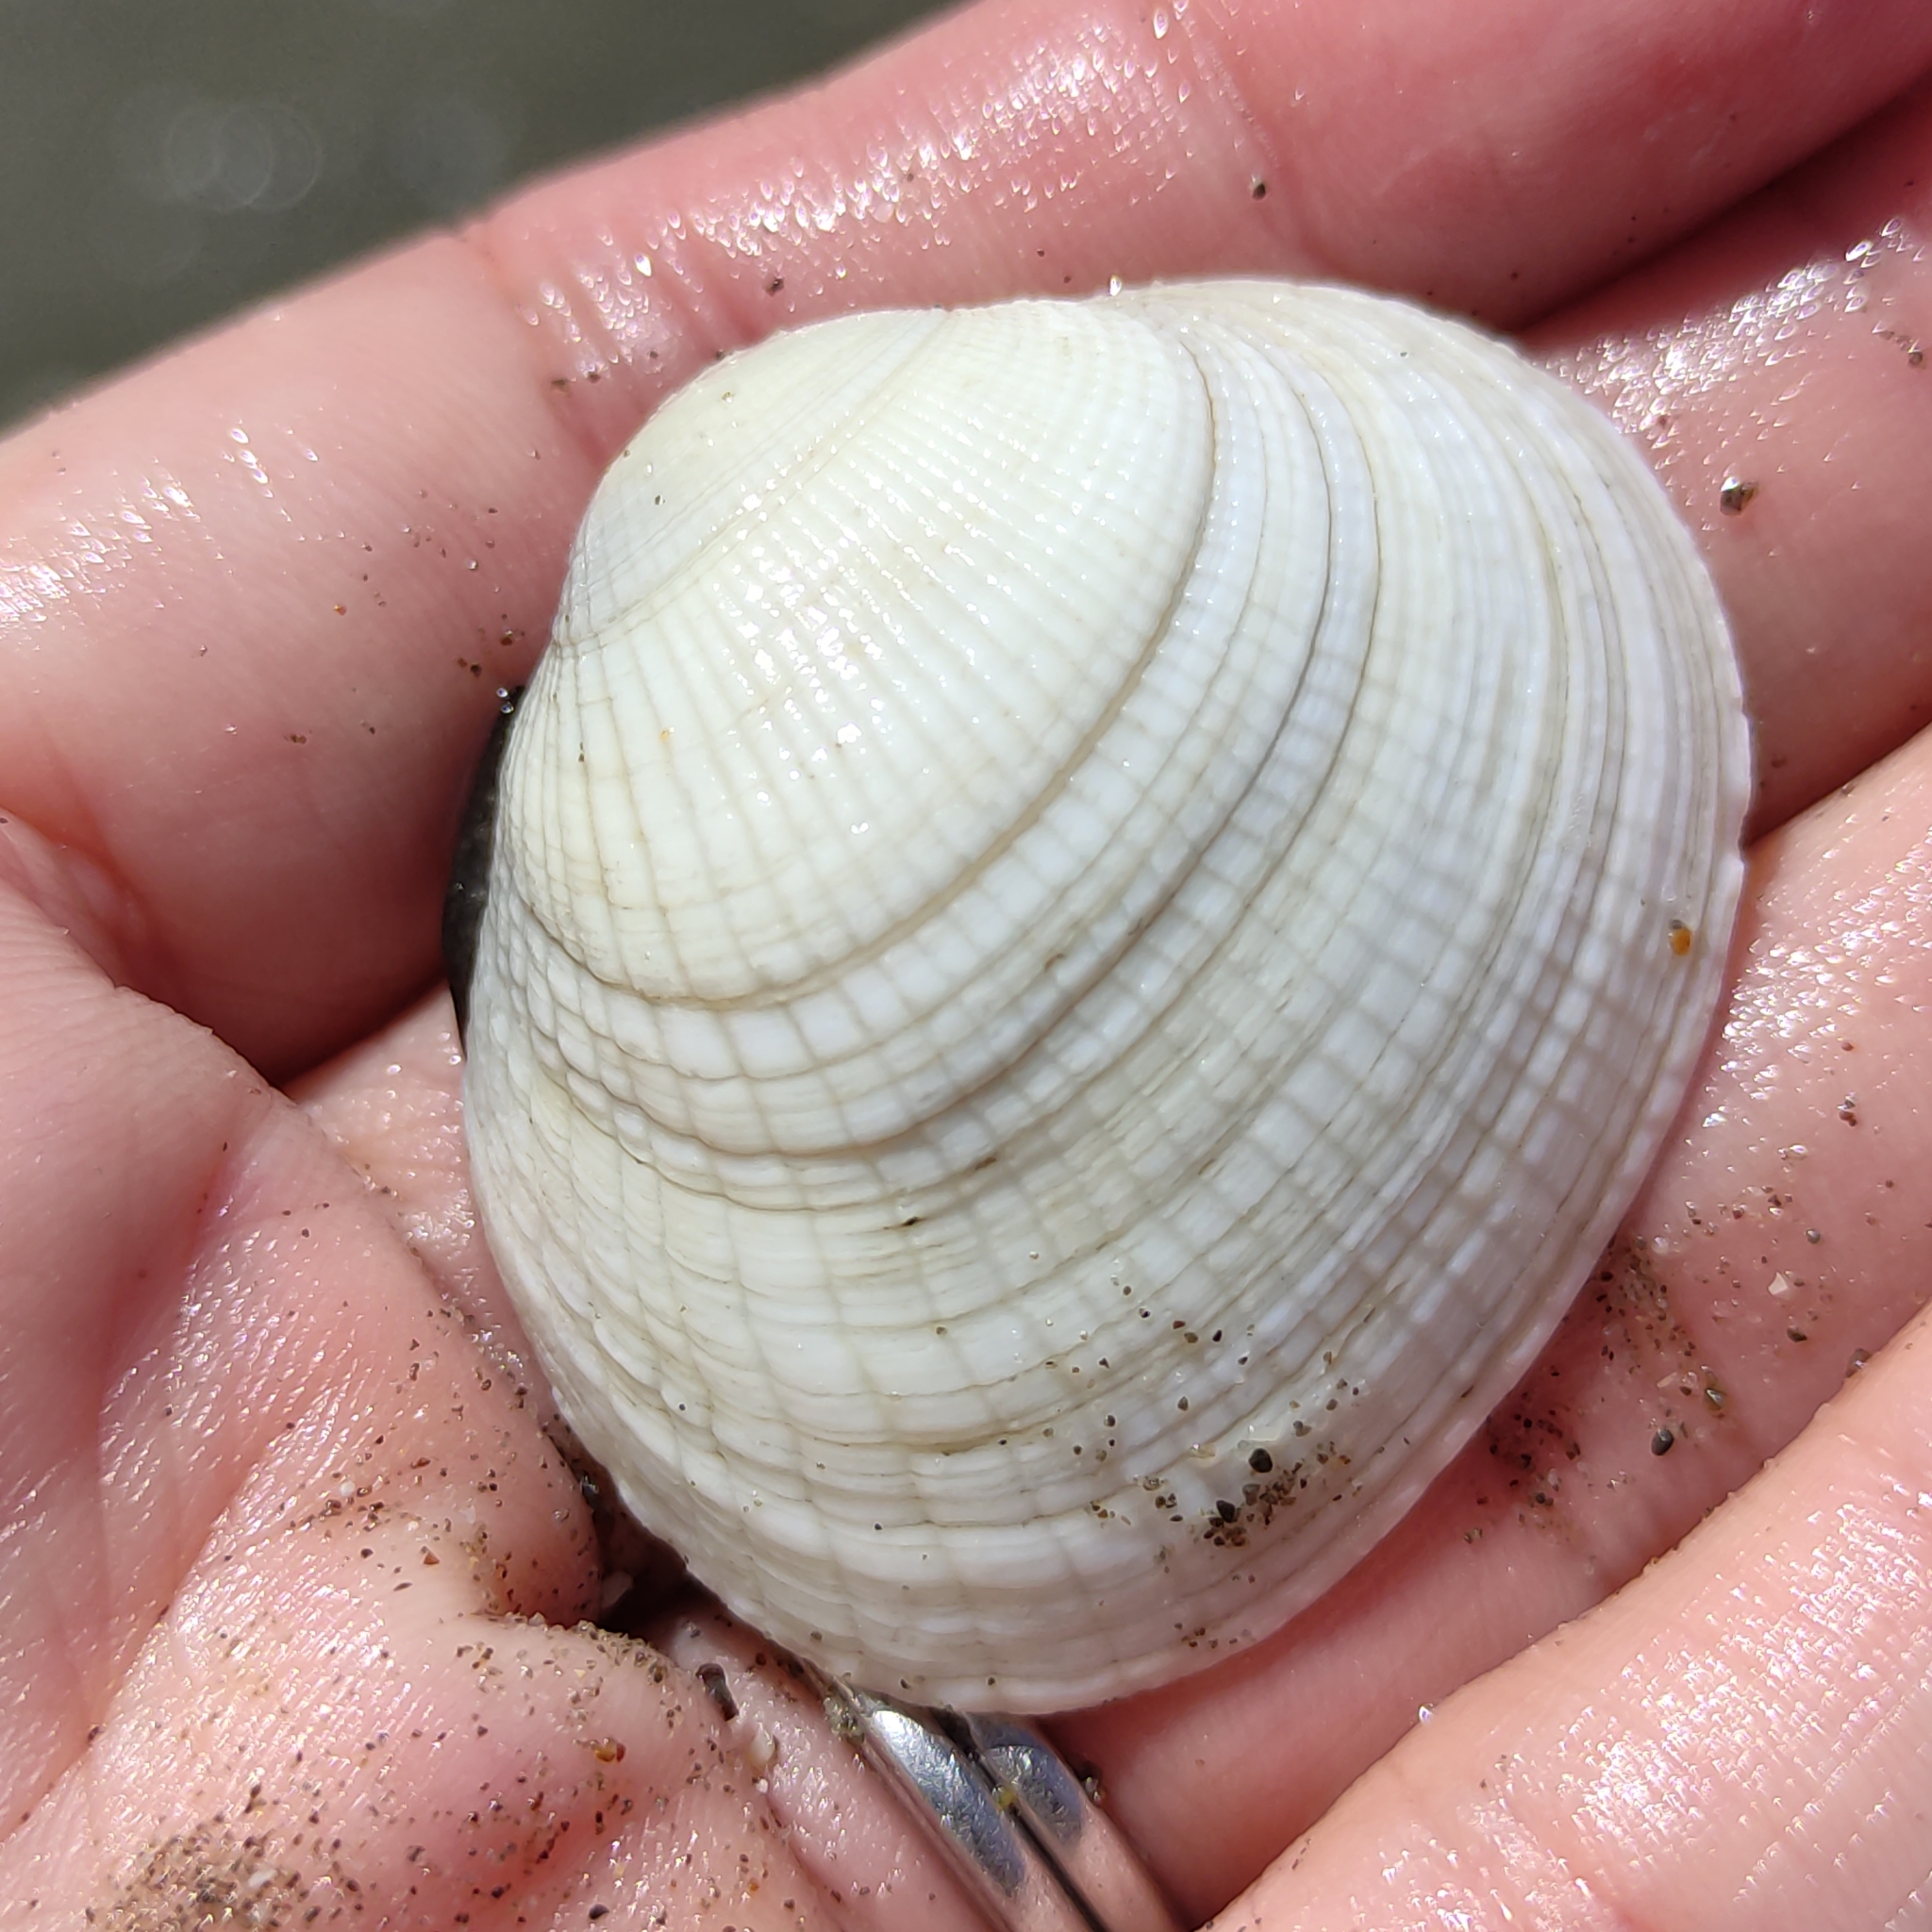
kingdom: Animalia
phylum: Mollusca
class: Bivalvia
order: Venerida
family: Veneridae
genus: Leukoma
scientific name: Leukoma crassicosta
